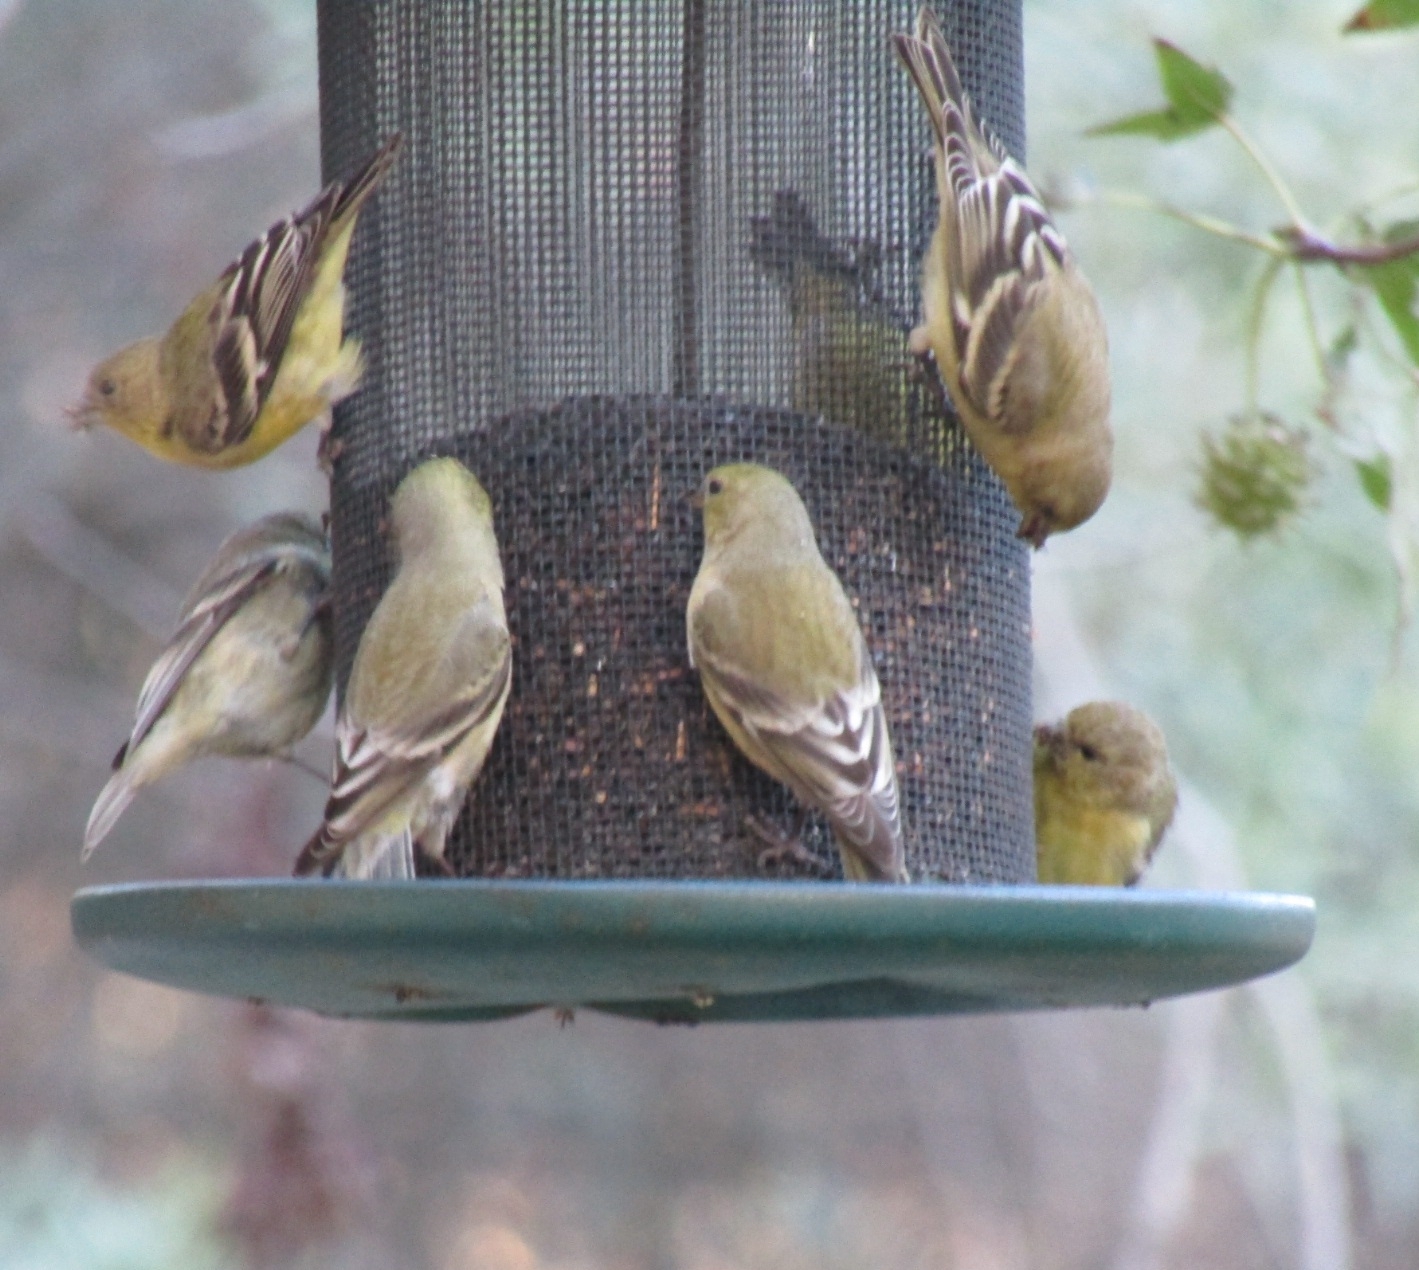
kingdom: Animalia
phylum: Chordata
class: Aves
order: Passeriformes
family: Fringillidae
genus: Spinus
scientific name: Spinus psaltria
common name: Lesser goldfinch
